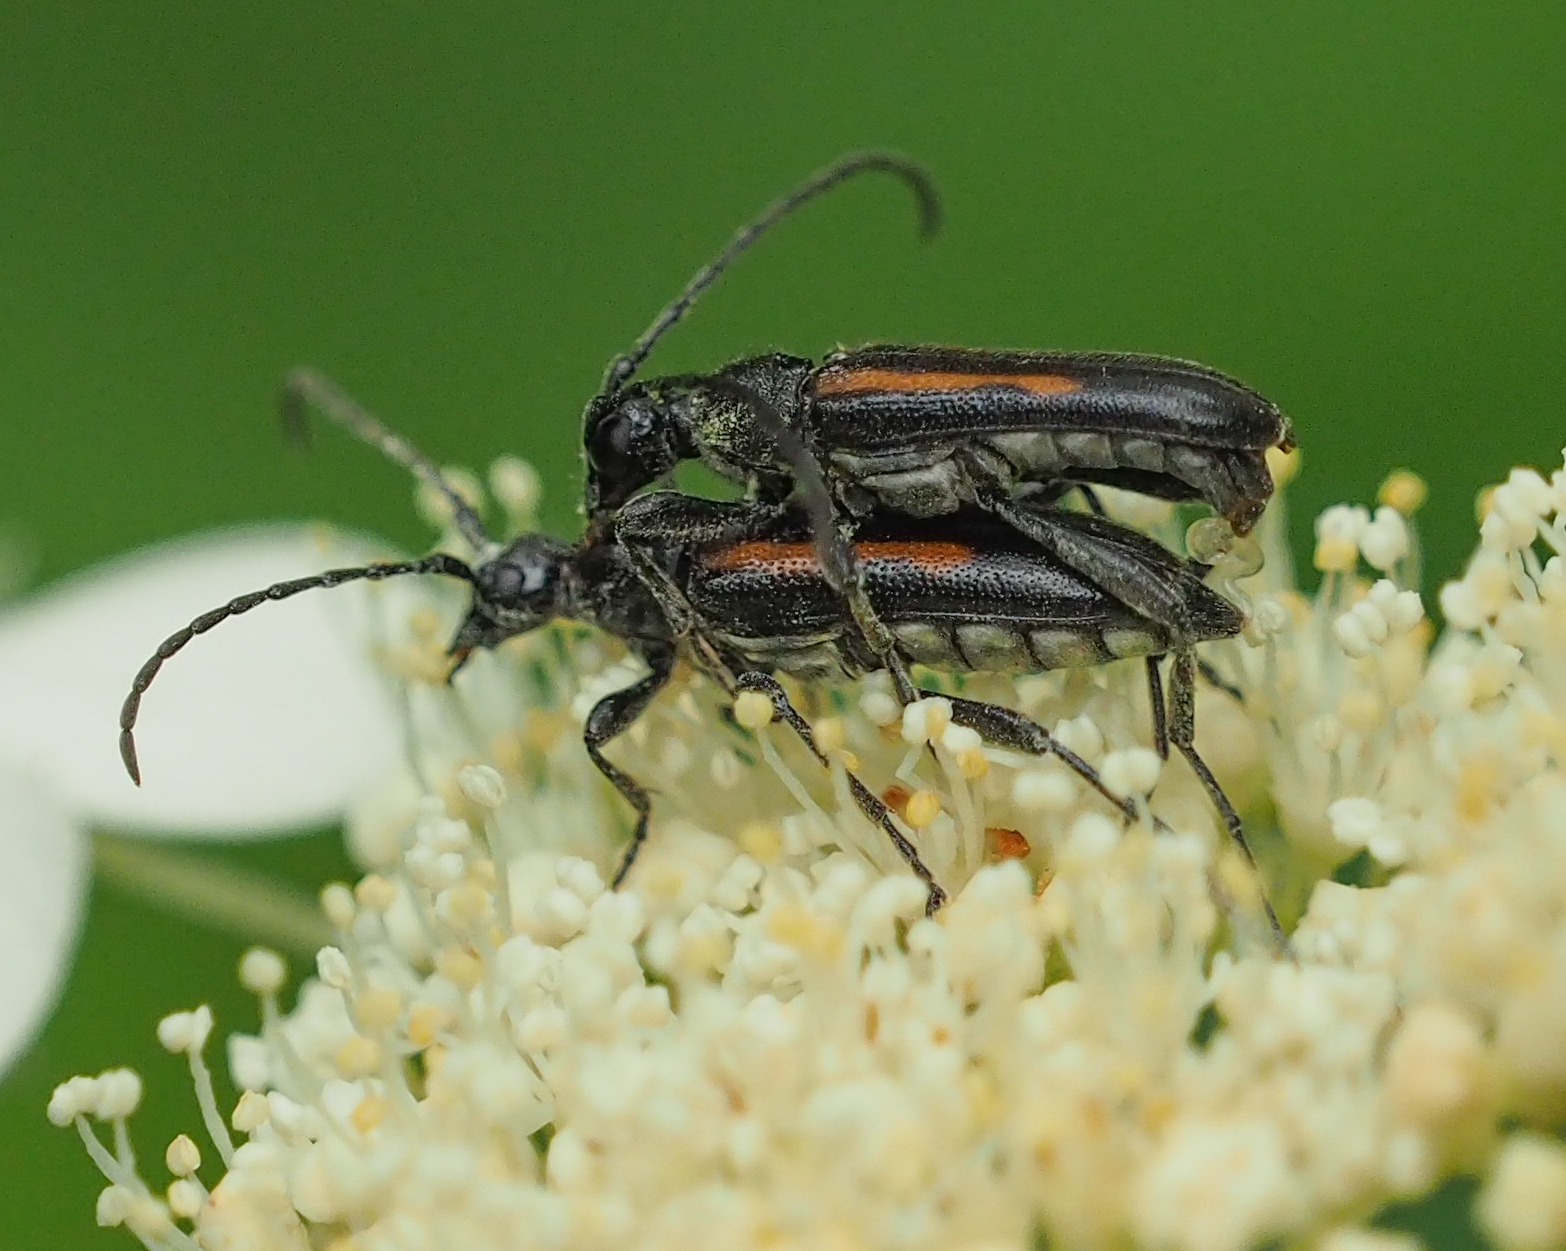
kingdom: Animalia
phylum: Arthropoda
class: Insecta
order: Coleoptera
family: Cerambycidae
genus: Strangalepta
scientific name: Strangalepta abbreviata
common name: Strangalepta flower longhorn beetle
